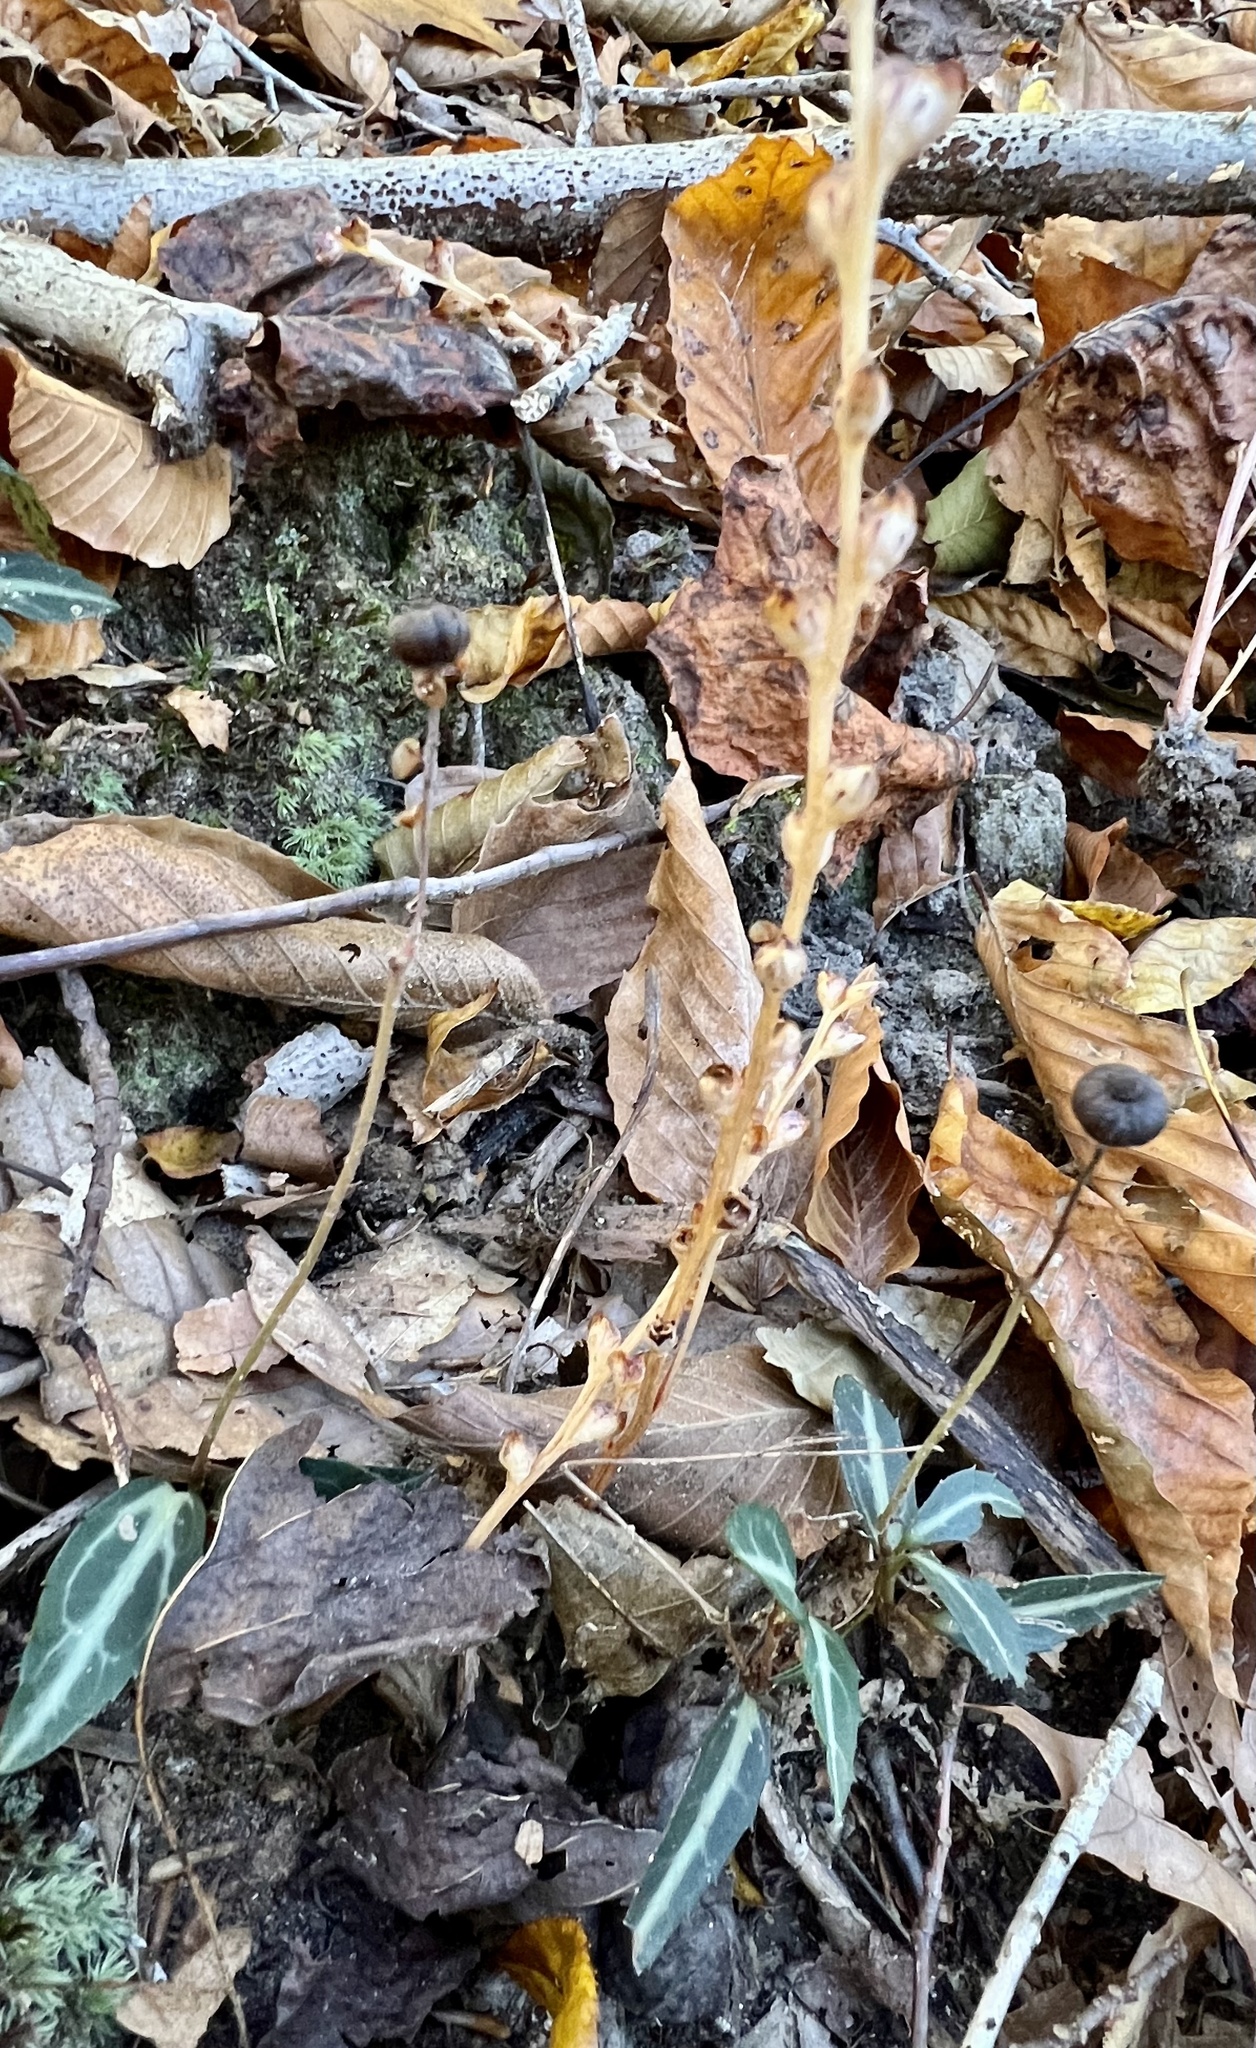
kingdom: Plantae
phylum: Tracheophyta
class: Magnoliopsida
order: Ericales
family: Ericaceae
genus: Chimaphila
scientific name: Chimaphila maculata
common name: Spotted pipsissewa
